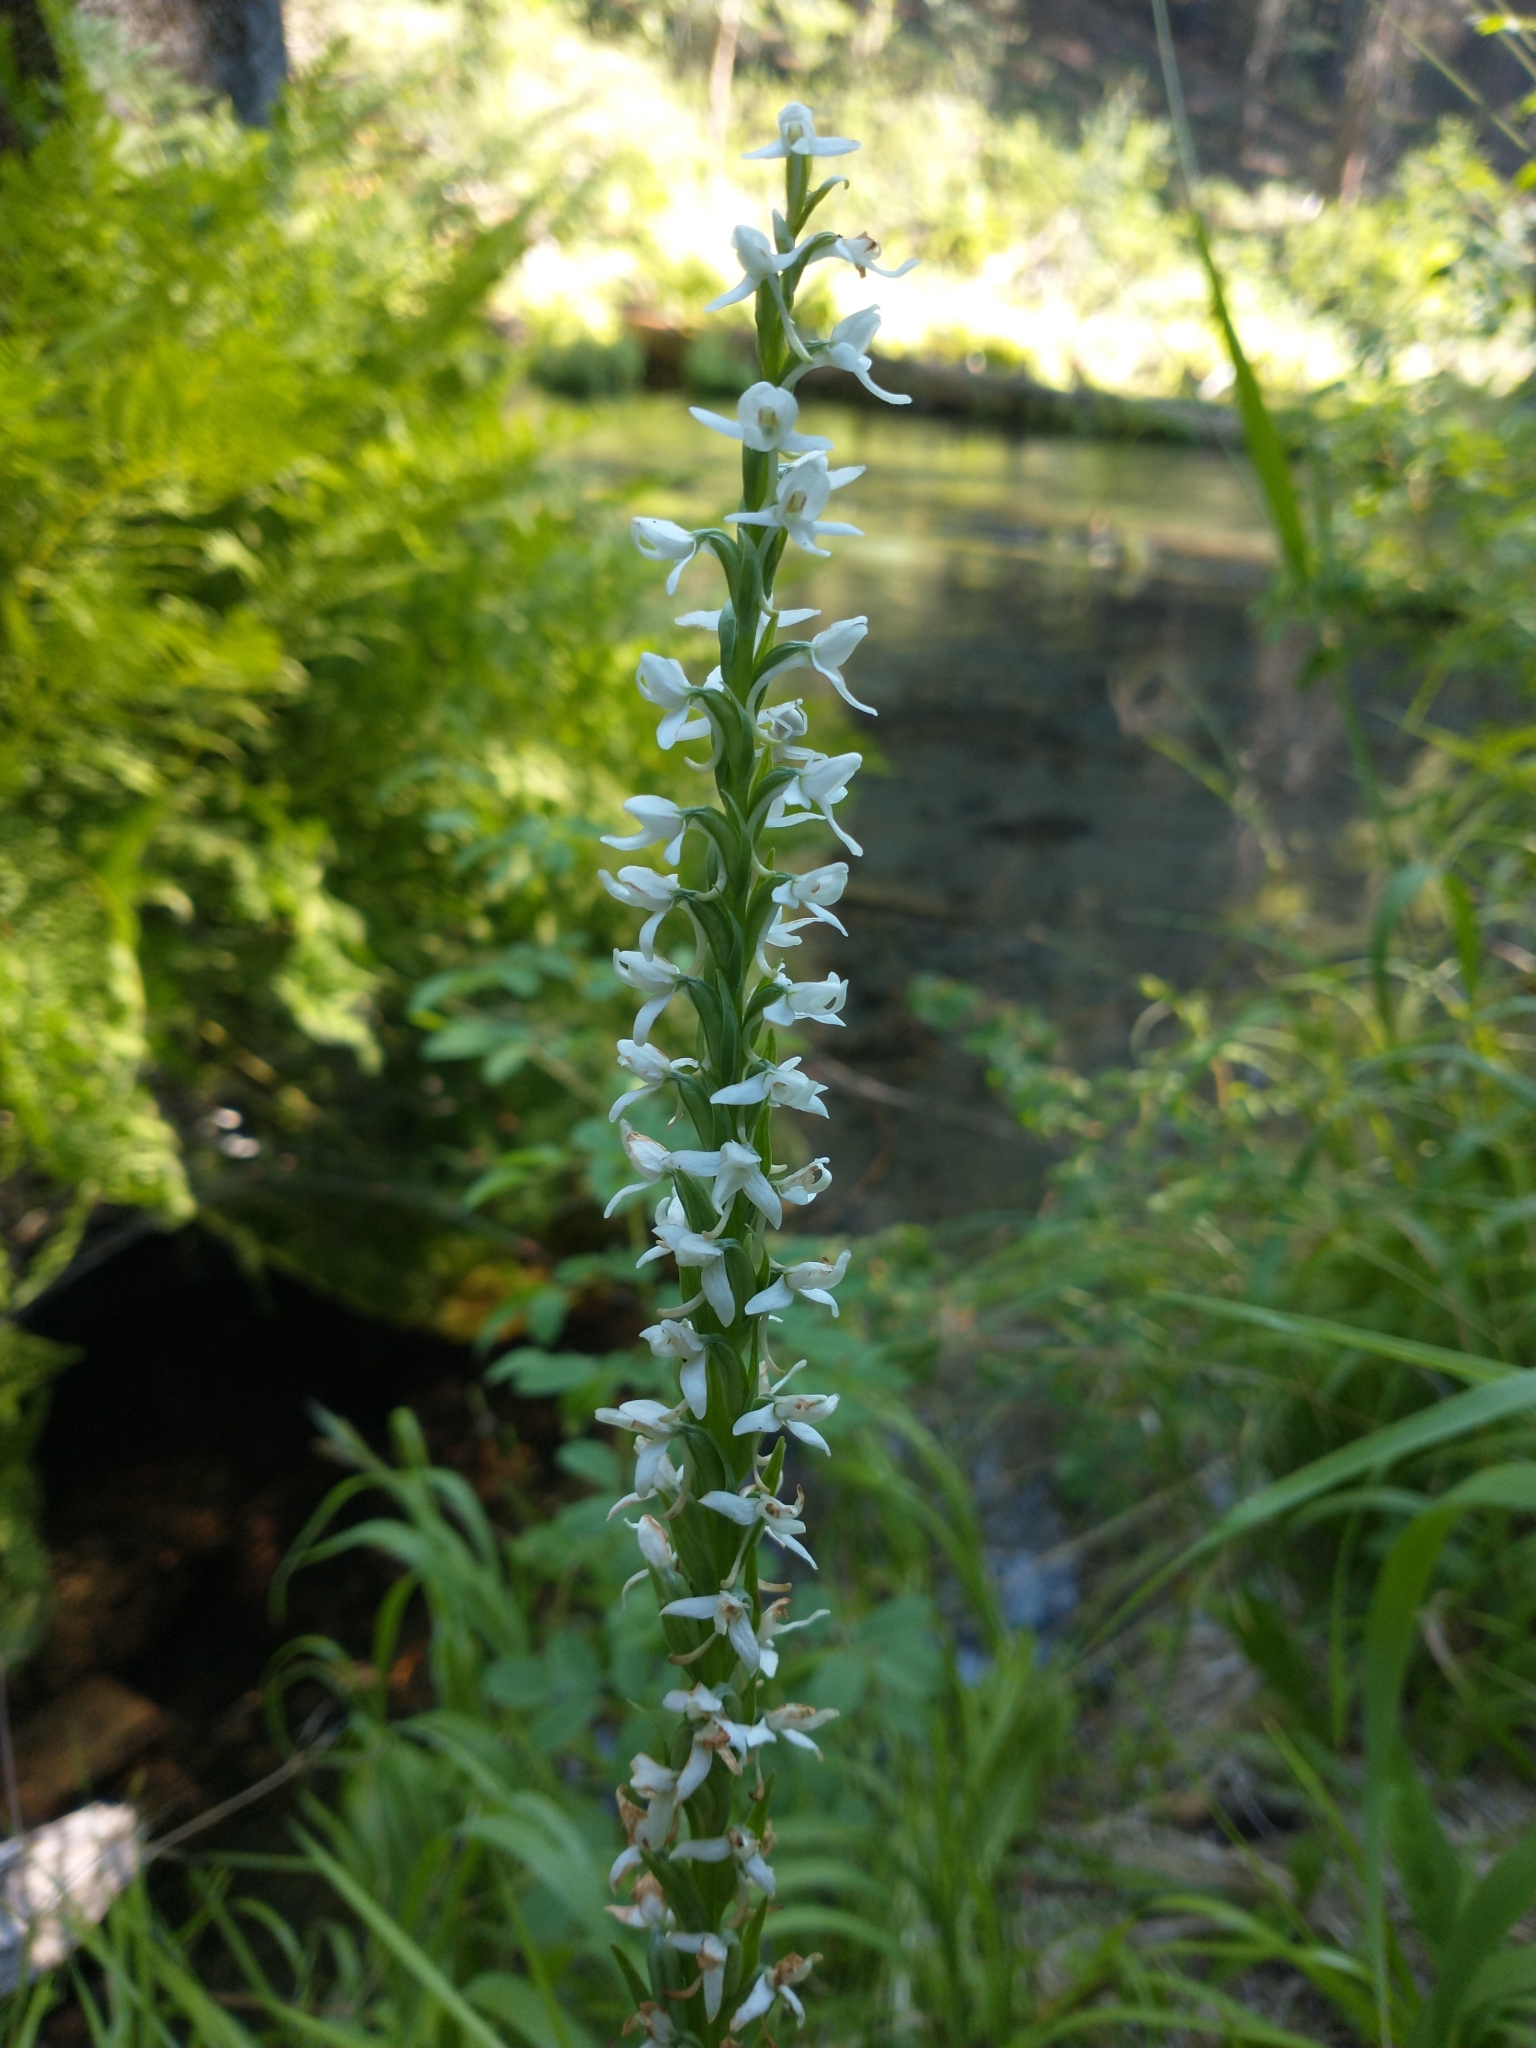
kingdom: Plantae
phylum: Tracheophyta
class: Liliopsida
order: Asparagales
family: Orchidaceae
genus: Platanthera
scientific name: Platanthera dilatata
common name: Bog candles
